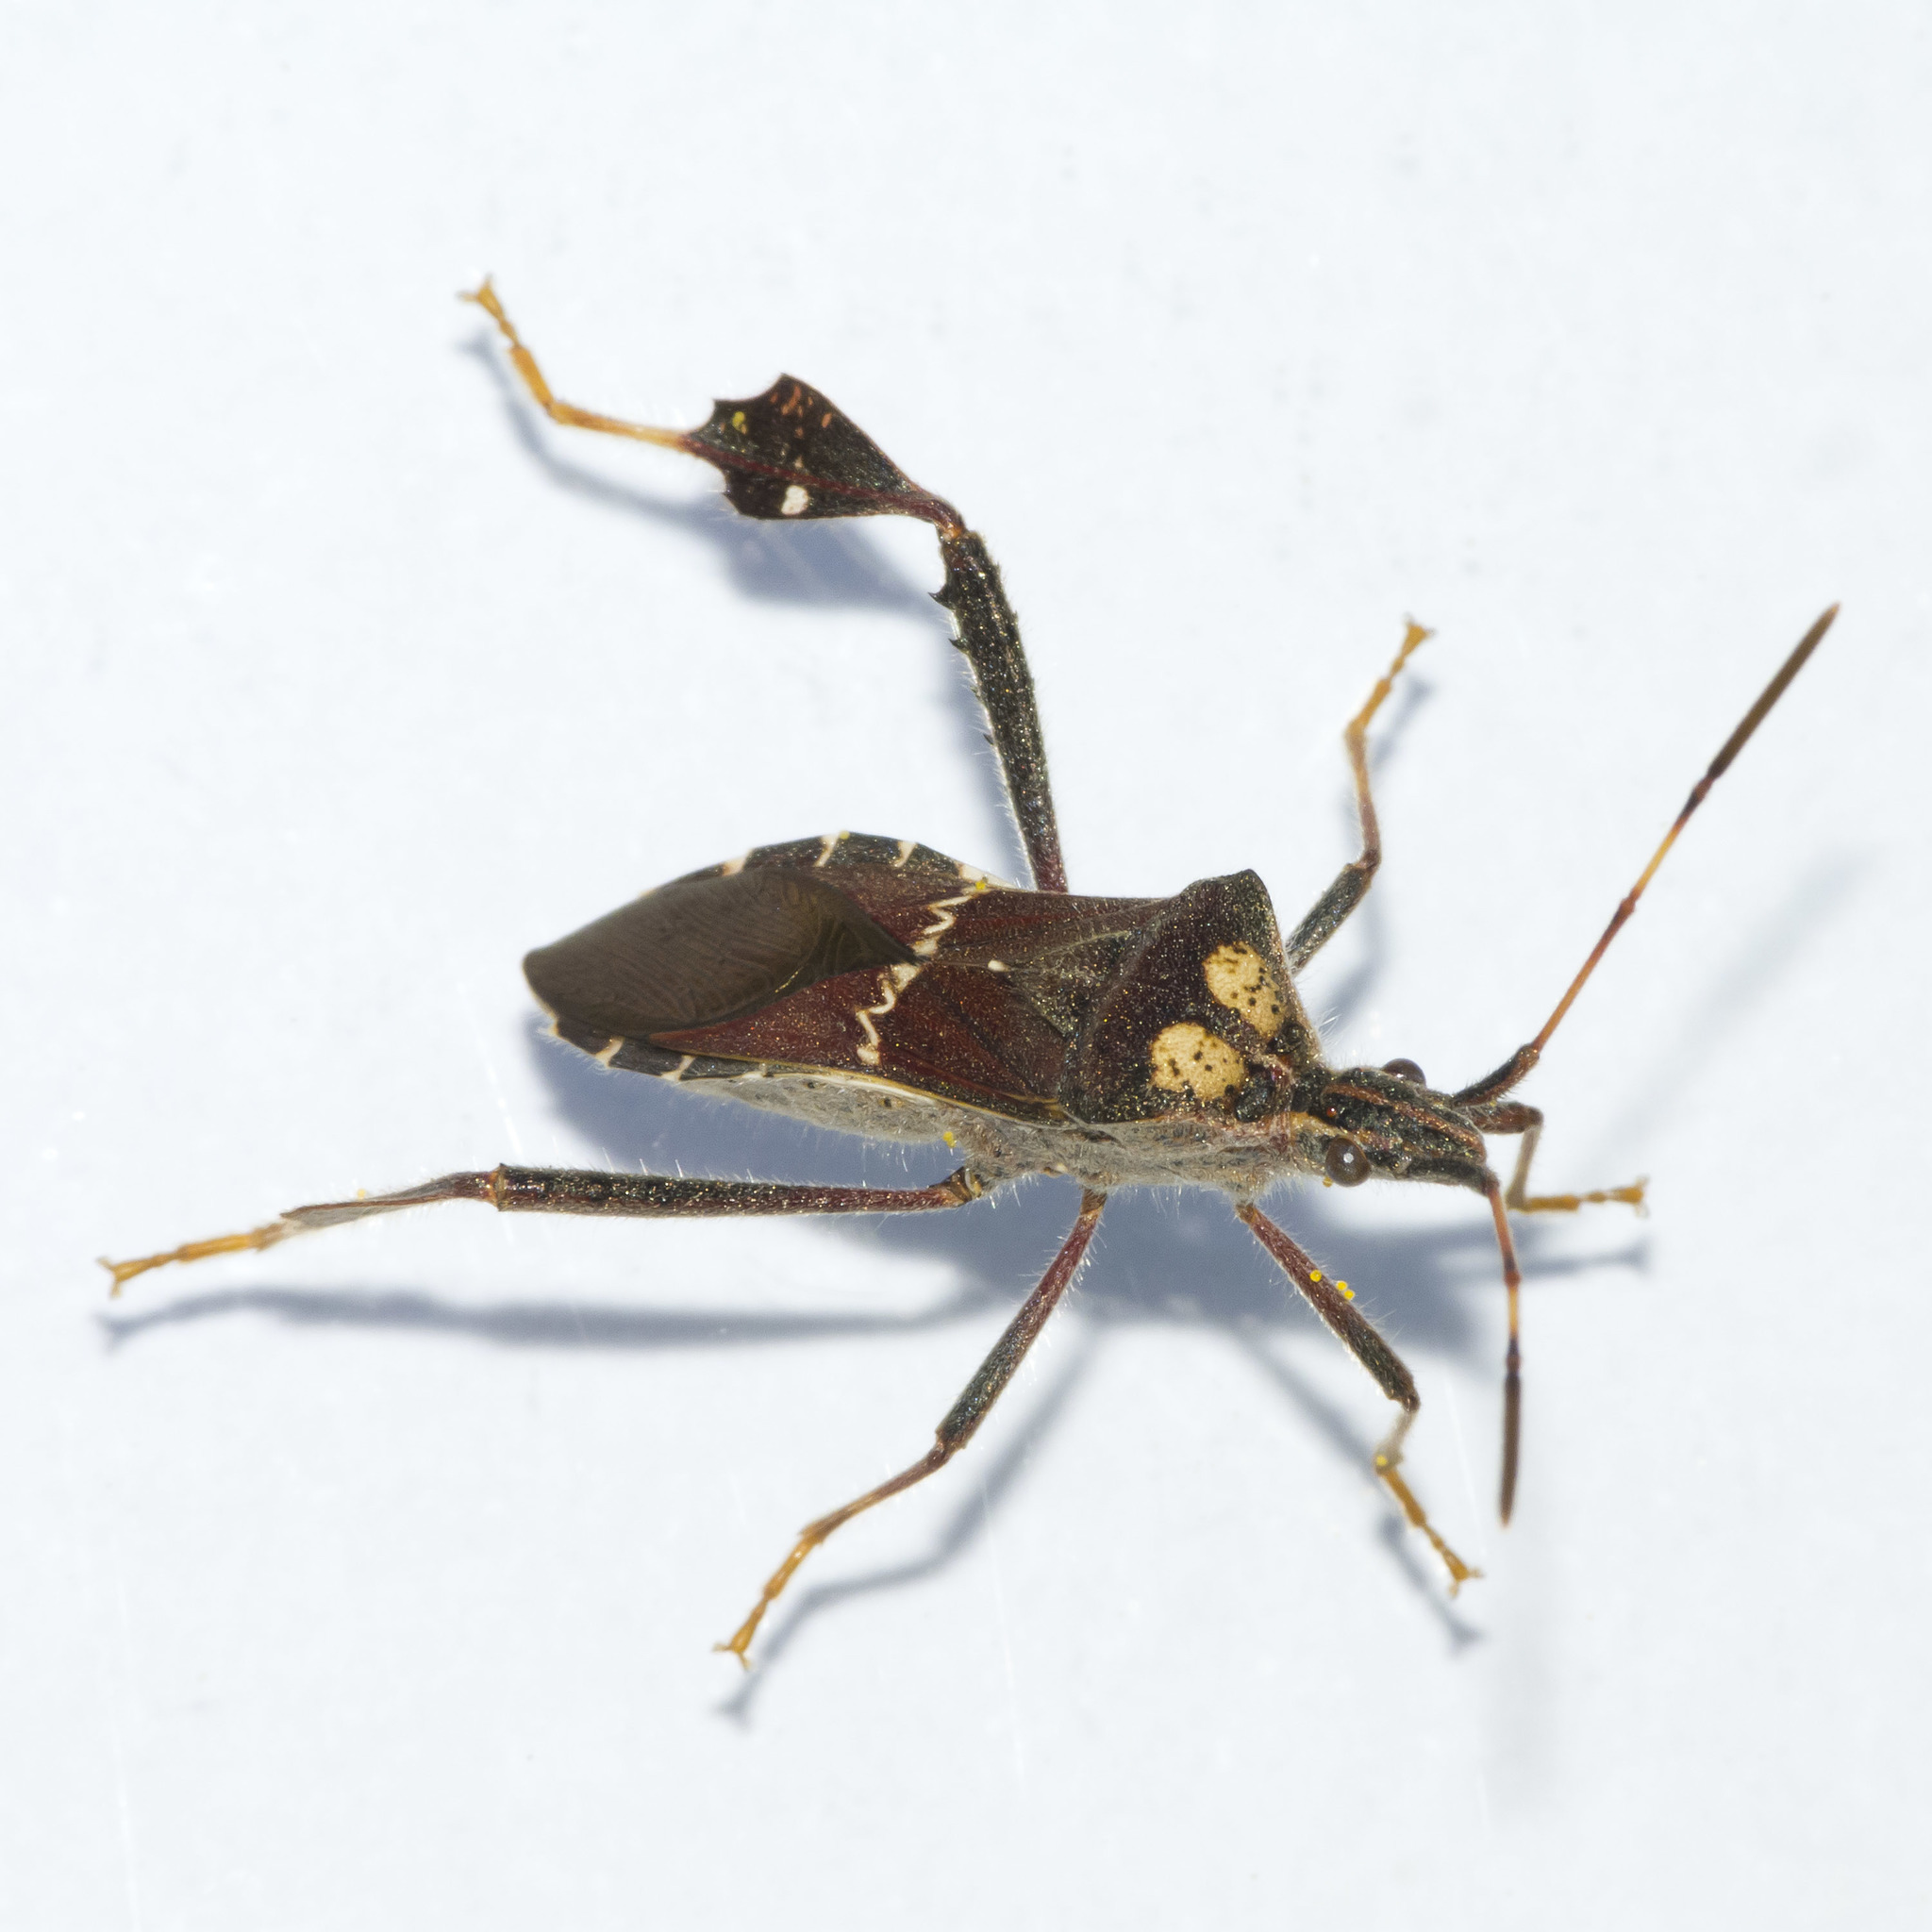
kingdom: Animalia
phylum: Arthropoda
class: Insecta
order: Hemiptera
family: Coreidae
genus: Leptoglossus
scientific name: Leptoglossus zonatus
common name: Large-legged bug
